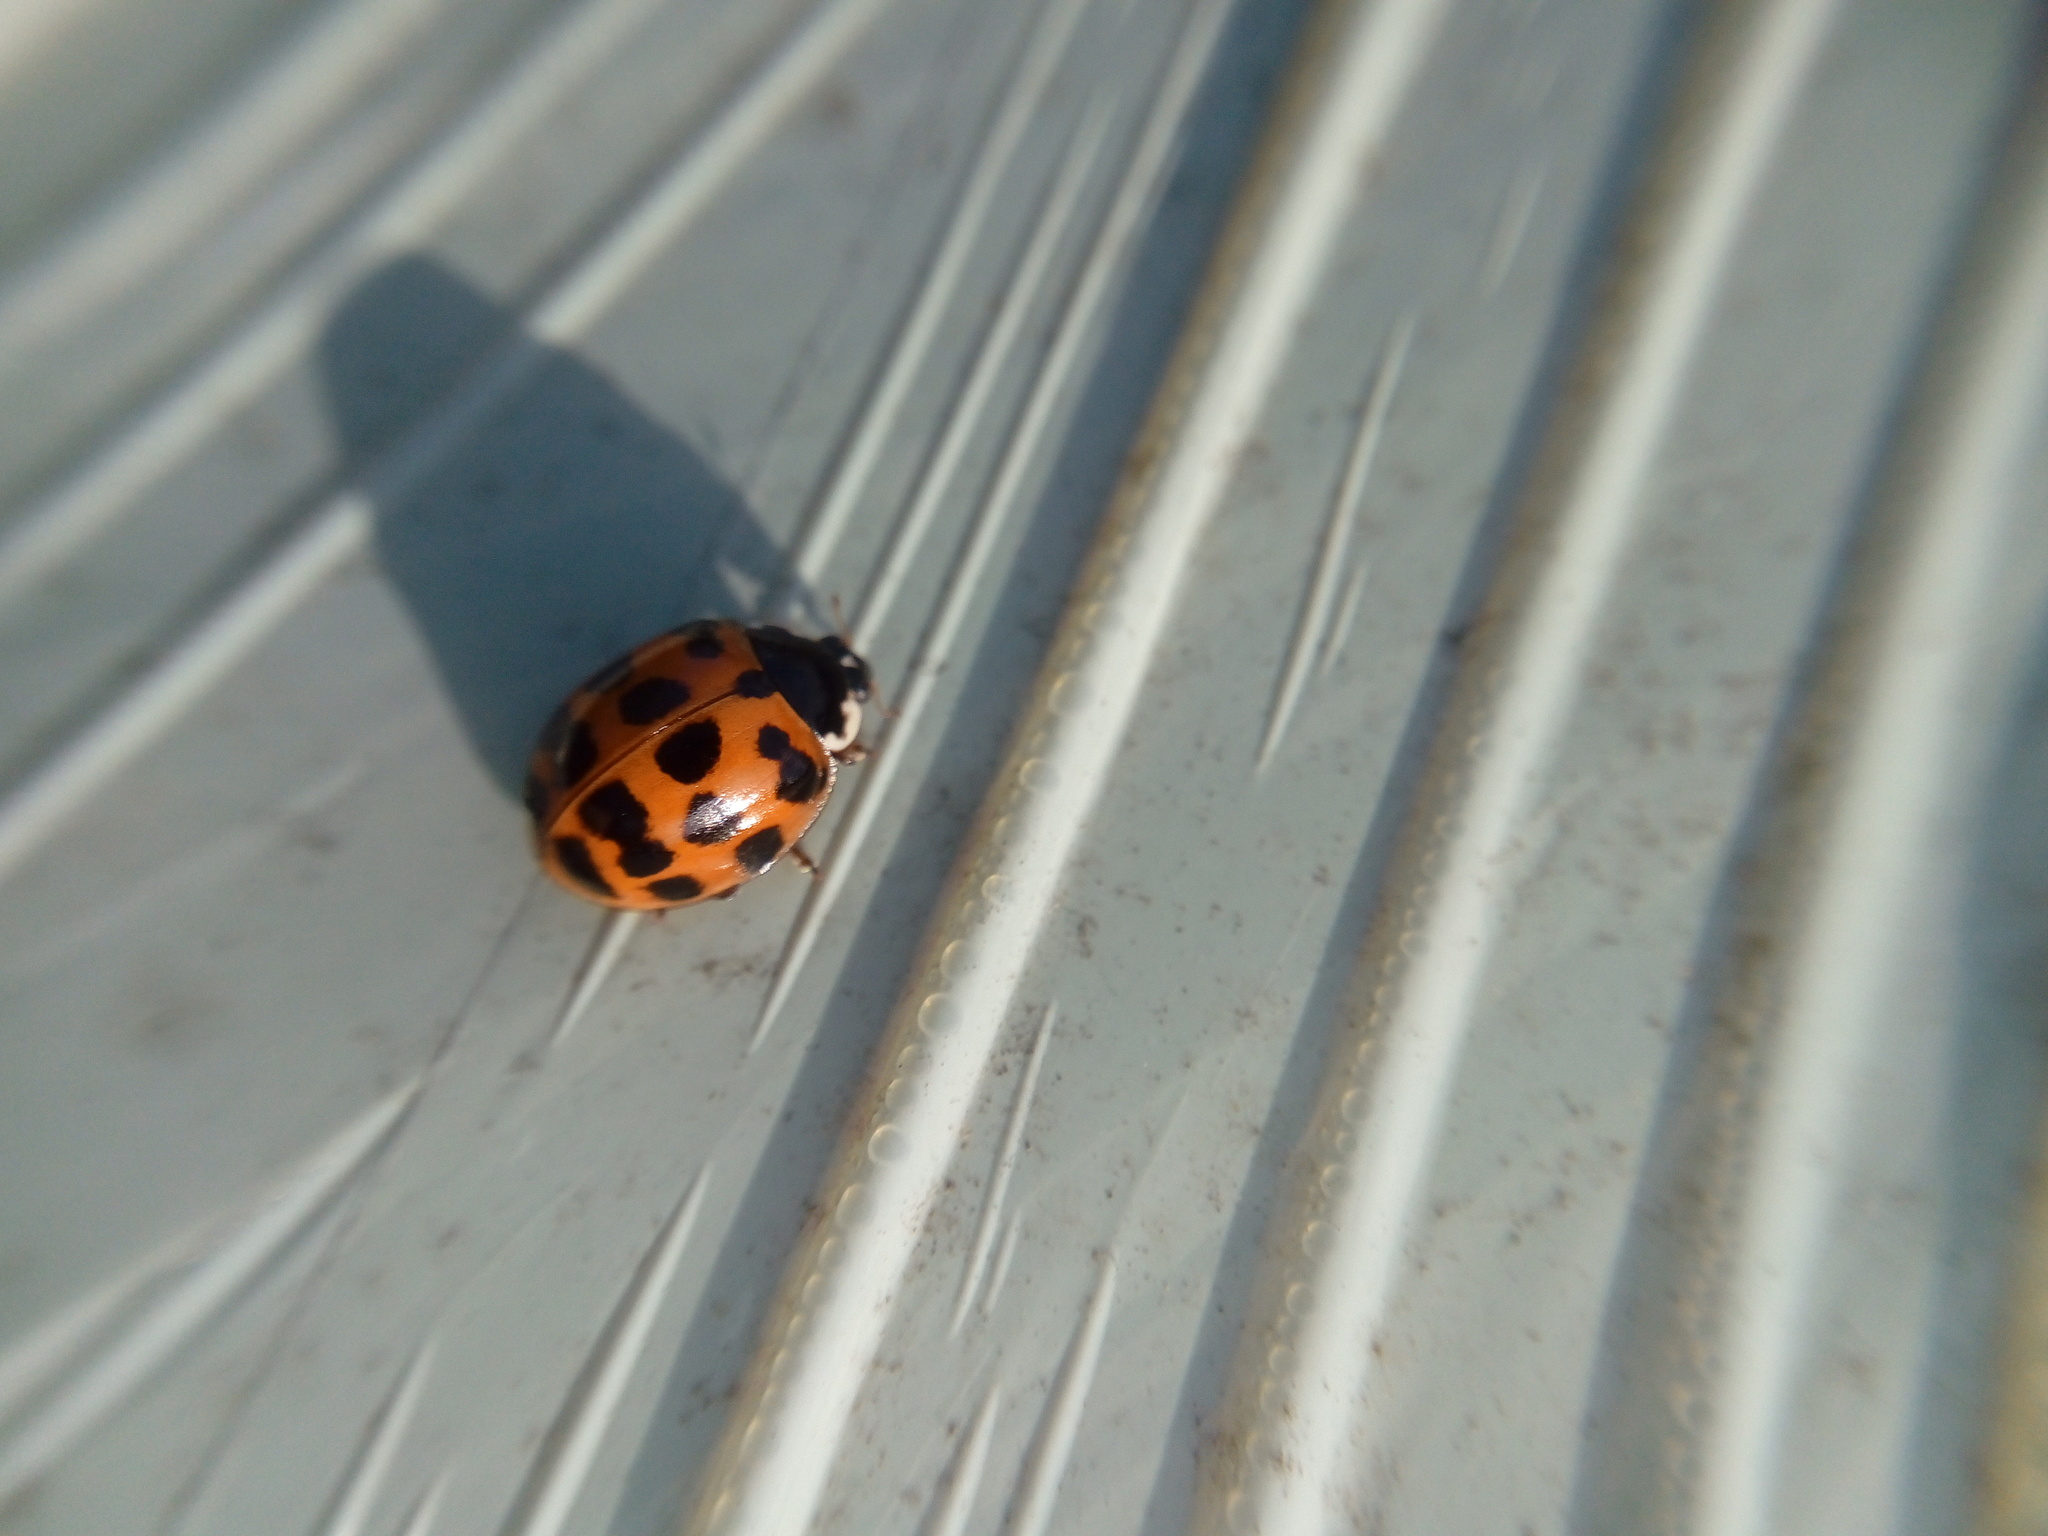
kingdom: Animalia
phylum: Arthropoda
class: Insecta
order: Coleoptera
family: Coccinellidae
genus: Harmonia
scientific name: Harmonia axyridis
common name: Harlequin ladybird
